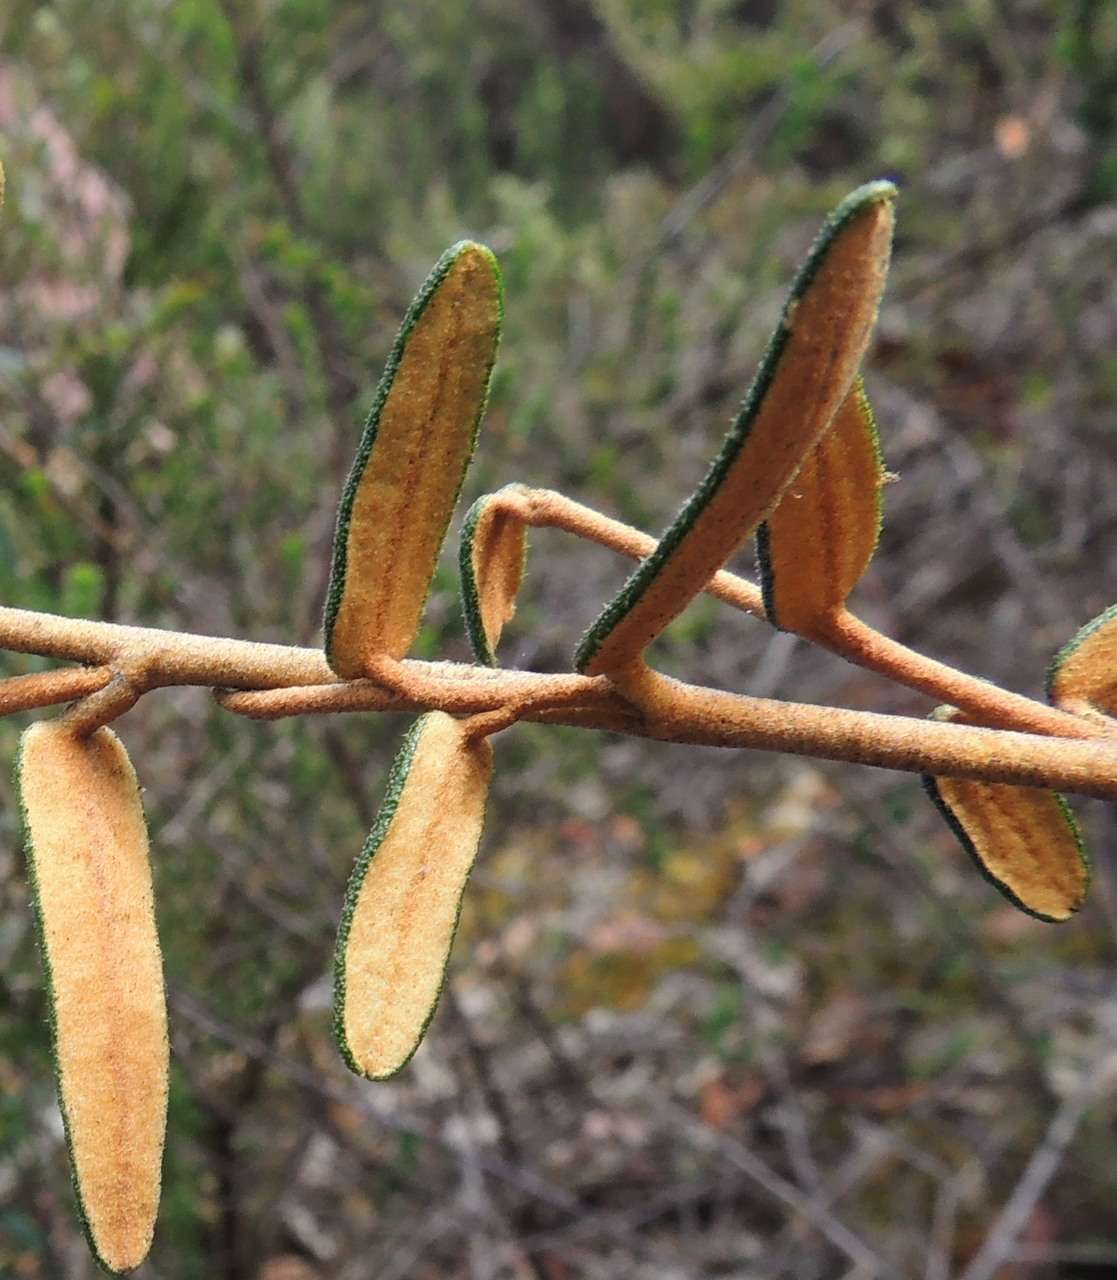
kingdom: Plantae
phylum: Tracheophyta
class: Magnoliopsida
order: Apiales
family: Araliaceae
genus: Astrotricha
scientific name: Astrotricha ledifolia
